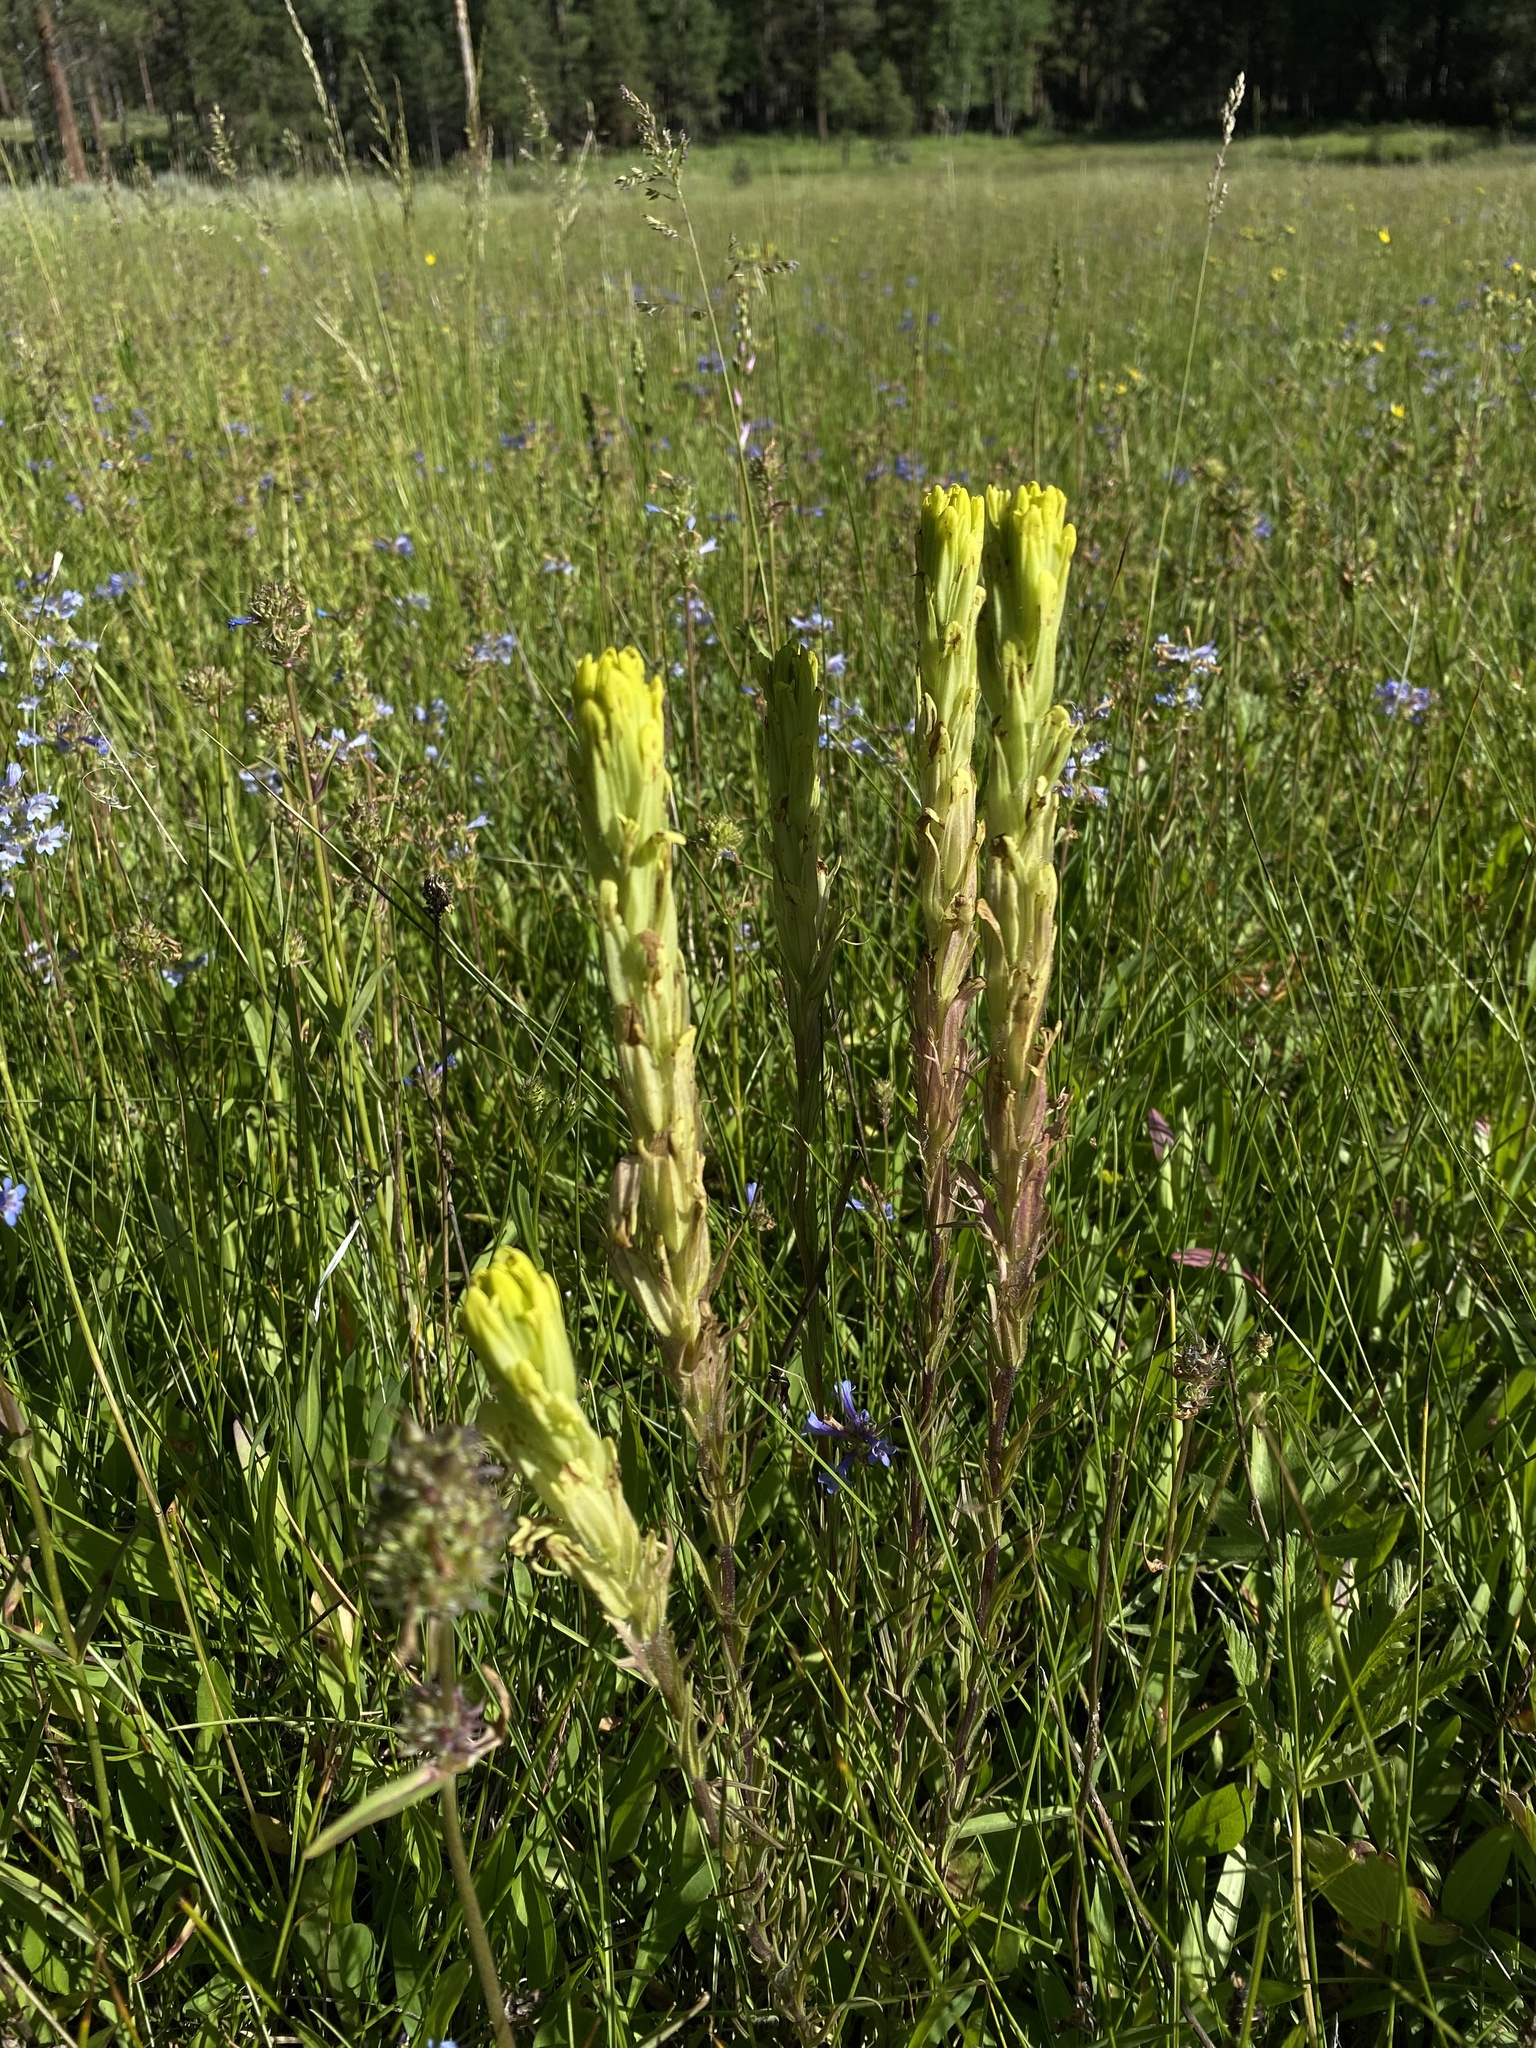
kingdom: Plantae
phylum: Tracheophyta
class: Magnoliopsida
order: Lamiales
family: Orobanchaceae
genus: Castilleja
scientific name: Castilleja cusickii
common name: Cusick's paintbrush
